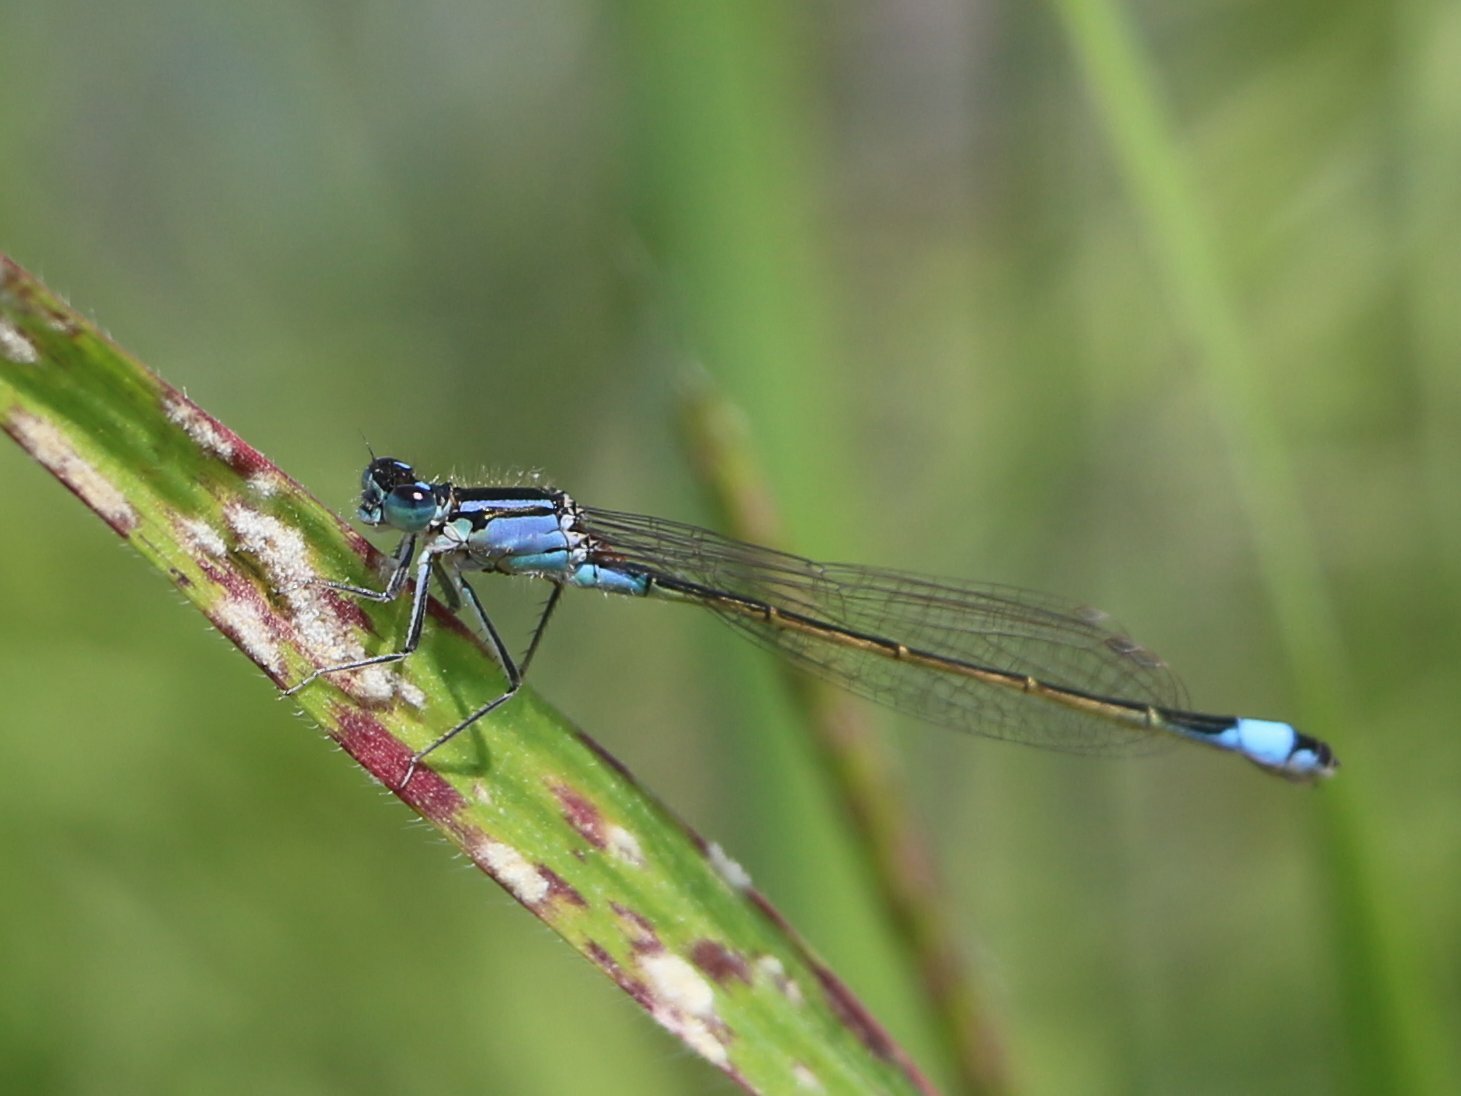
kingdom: Animalia
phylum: Arthropoda
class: Insecta
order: Odonata
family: Coenagrionidae
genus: Ischnura
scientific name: Ischnura elegans
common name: Blue-tailed damselfly
